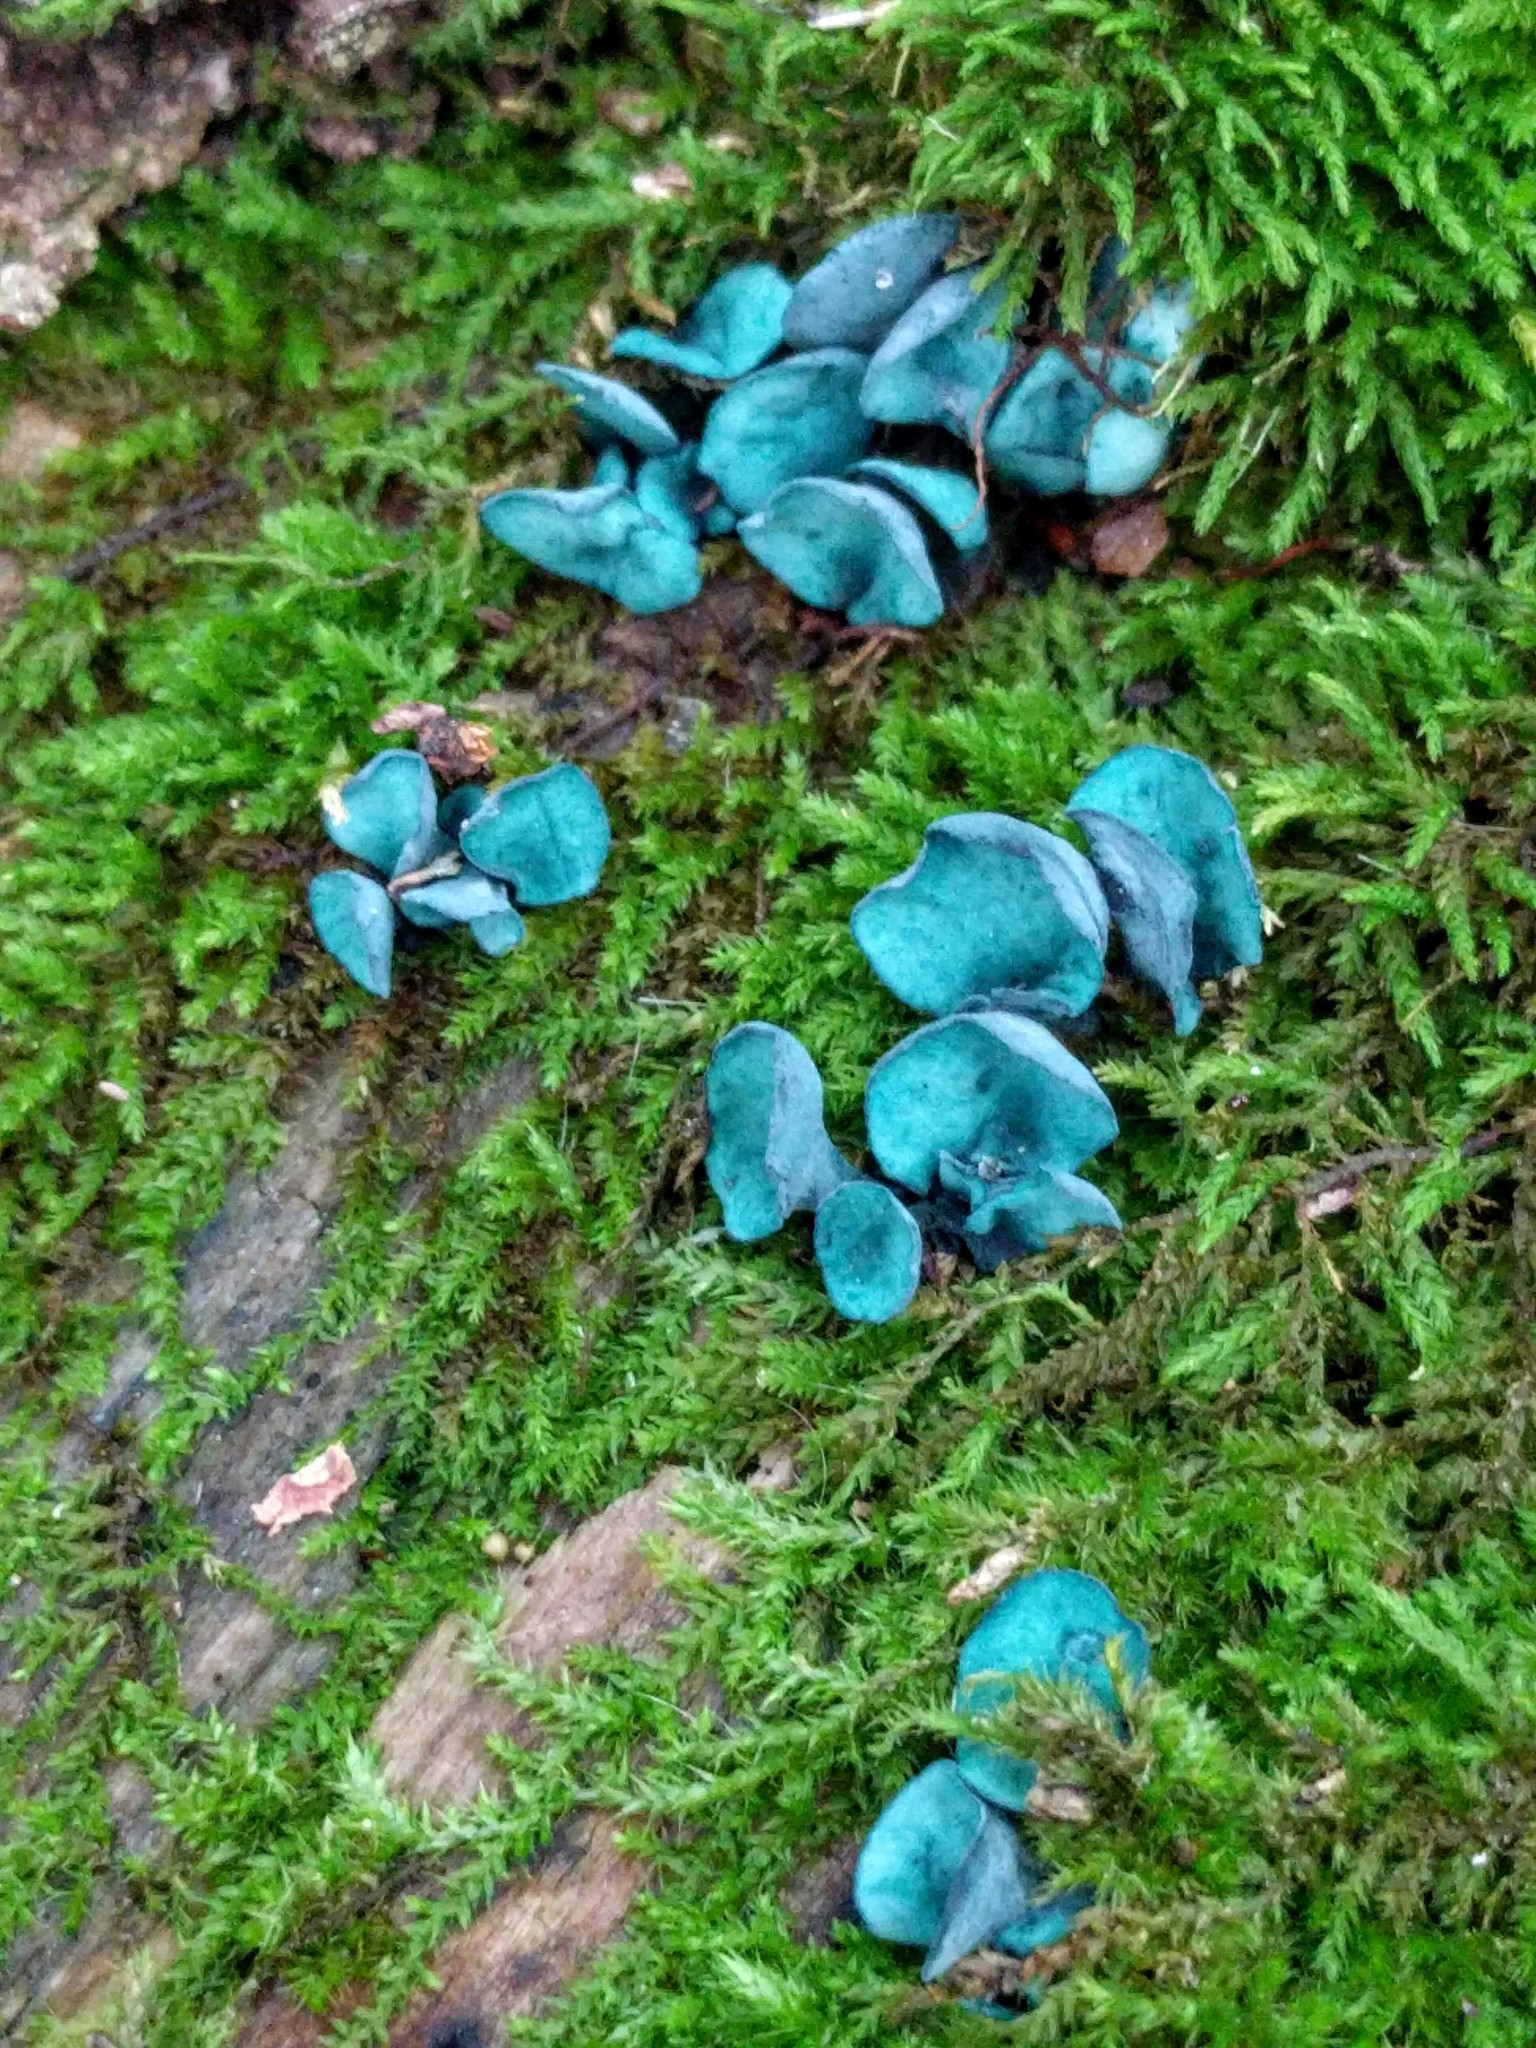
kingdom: Fungi
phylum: Ascomycota
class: Leotiomycetes
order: Helotiales
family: Chlorociboriaceae
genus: Chlorociboria
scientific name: Chlorociboria aeruginascens
